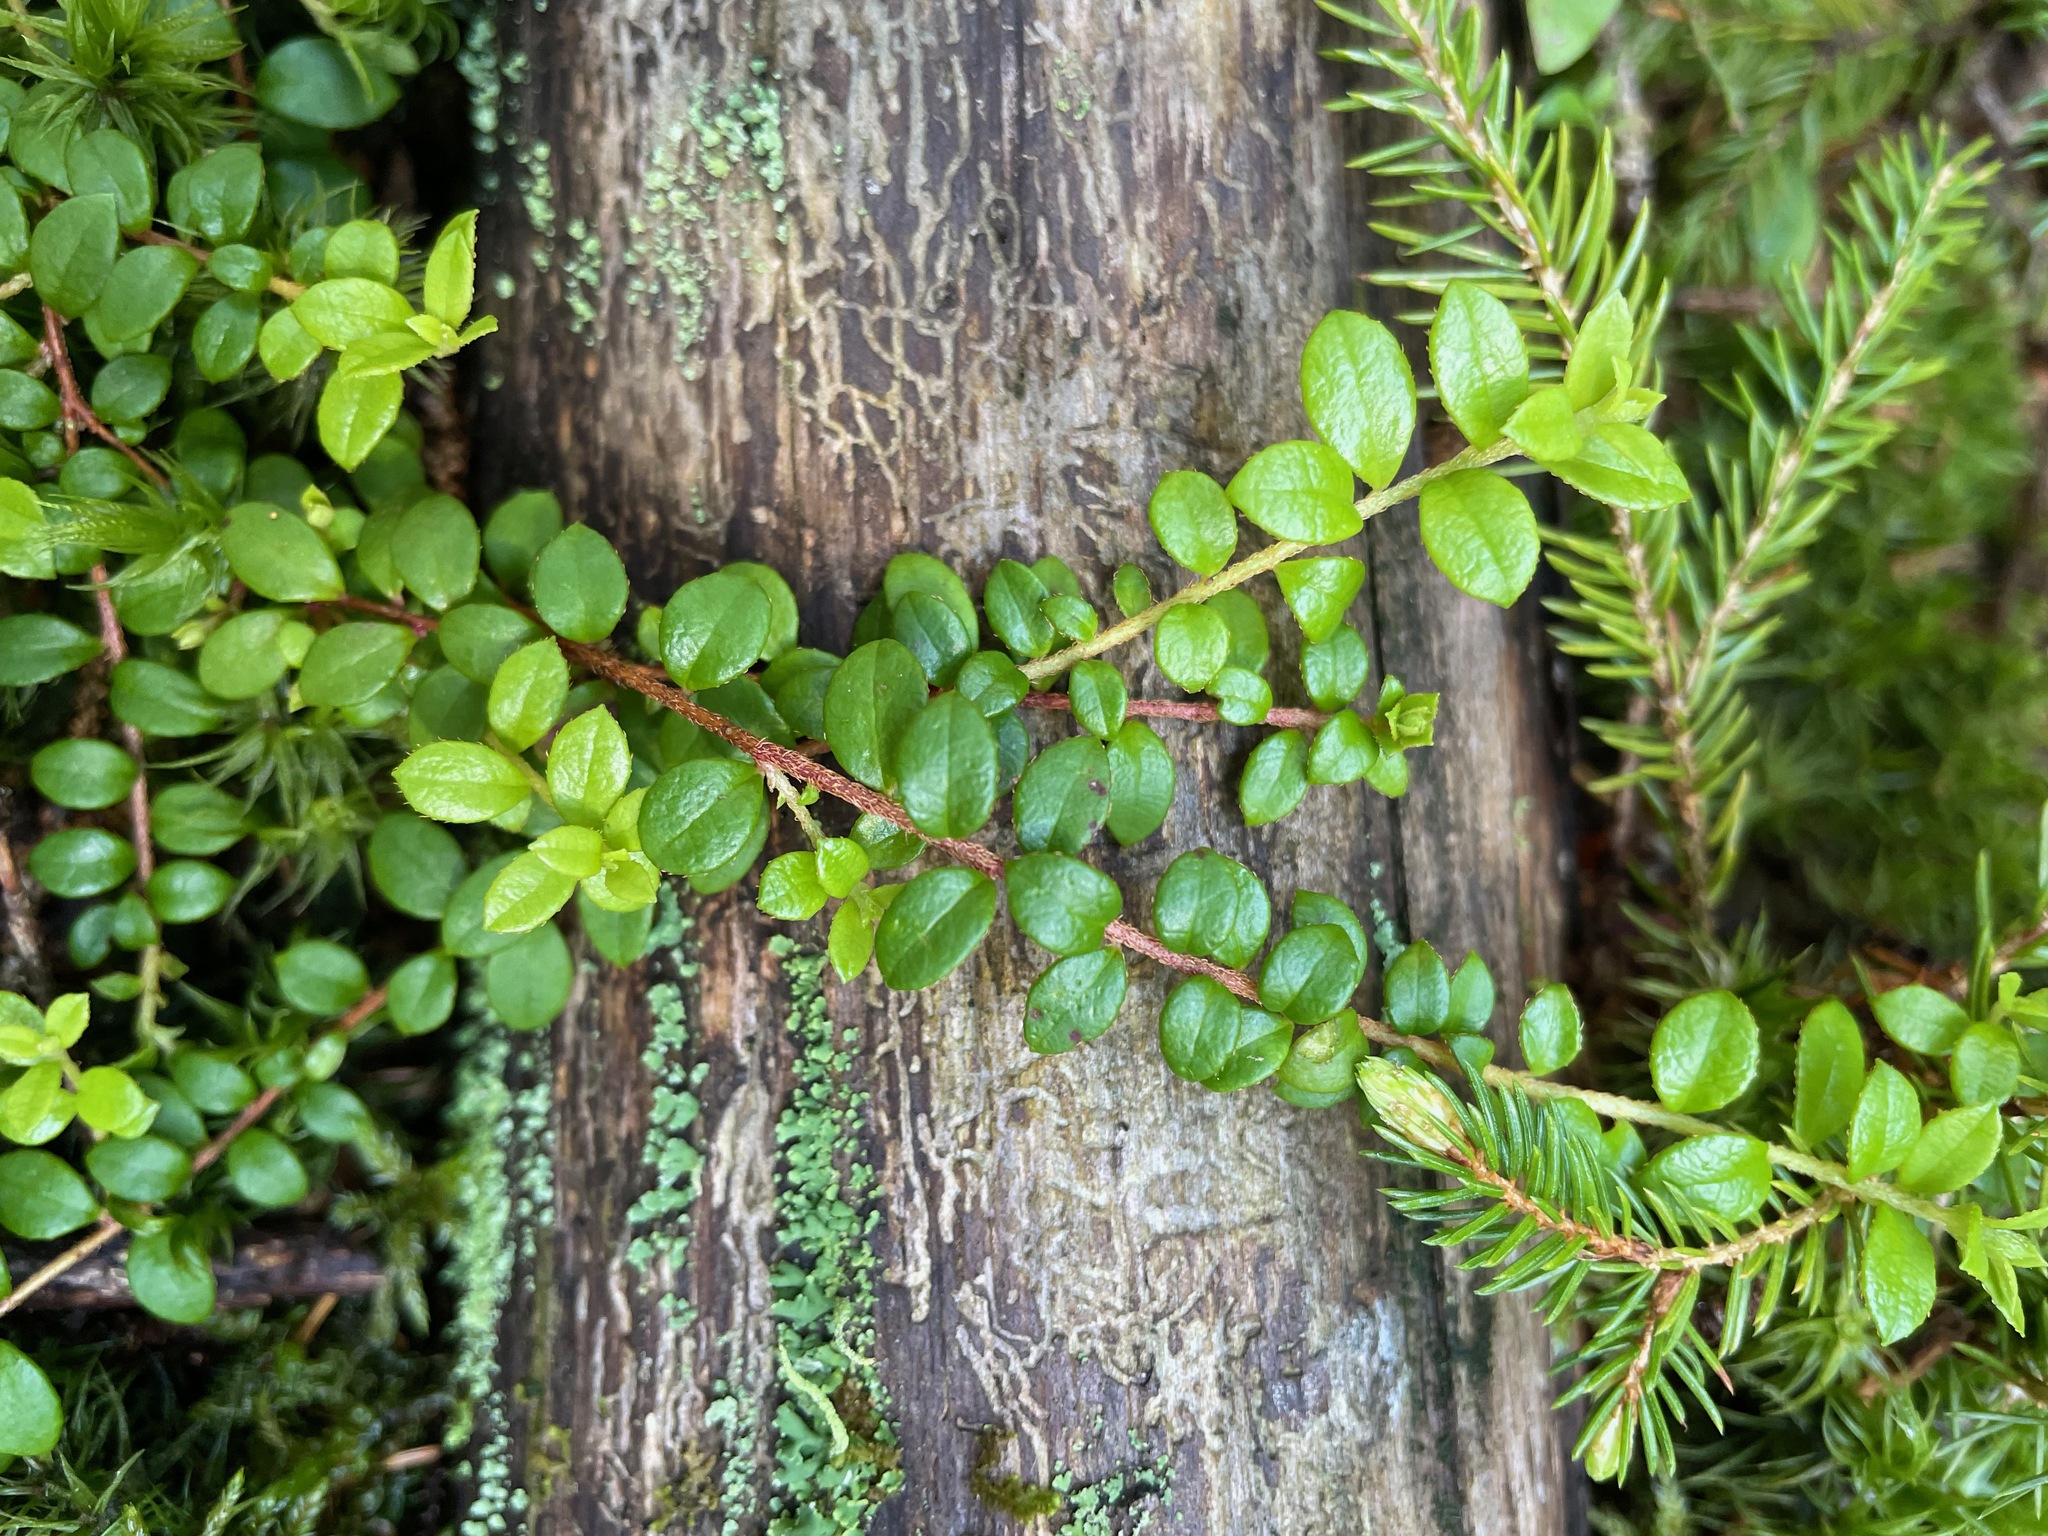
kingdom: Plantae
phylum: Tracheophyta
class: Magnoliopsida
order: Ericales
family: Ericaceae
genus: Gaultheria
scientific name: Gaultheria hispidula
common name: Cancer wintergreen
